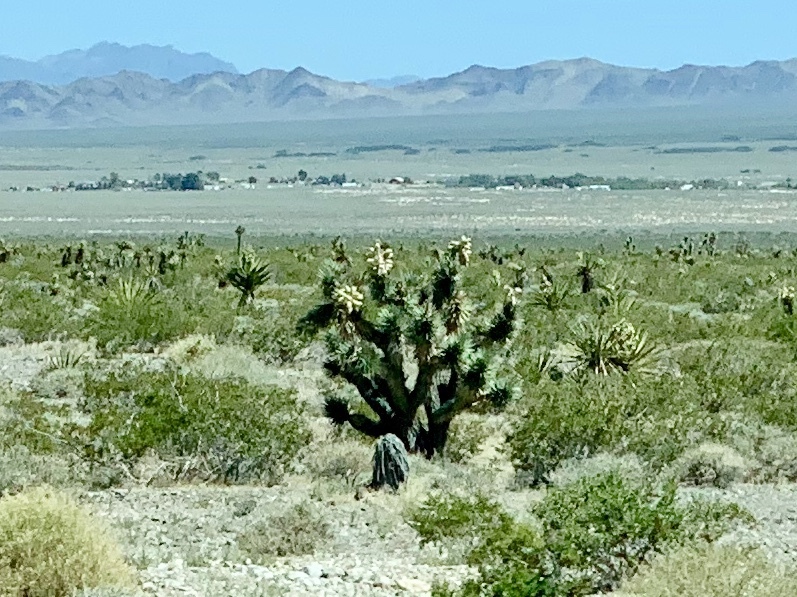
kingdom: Plantae
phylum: Tracheophyta
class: Liliopsida
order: Asparagales
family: Asparagaceae
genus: Yucca
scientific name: Yucca brevifolia
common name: Joshua tree
